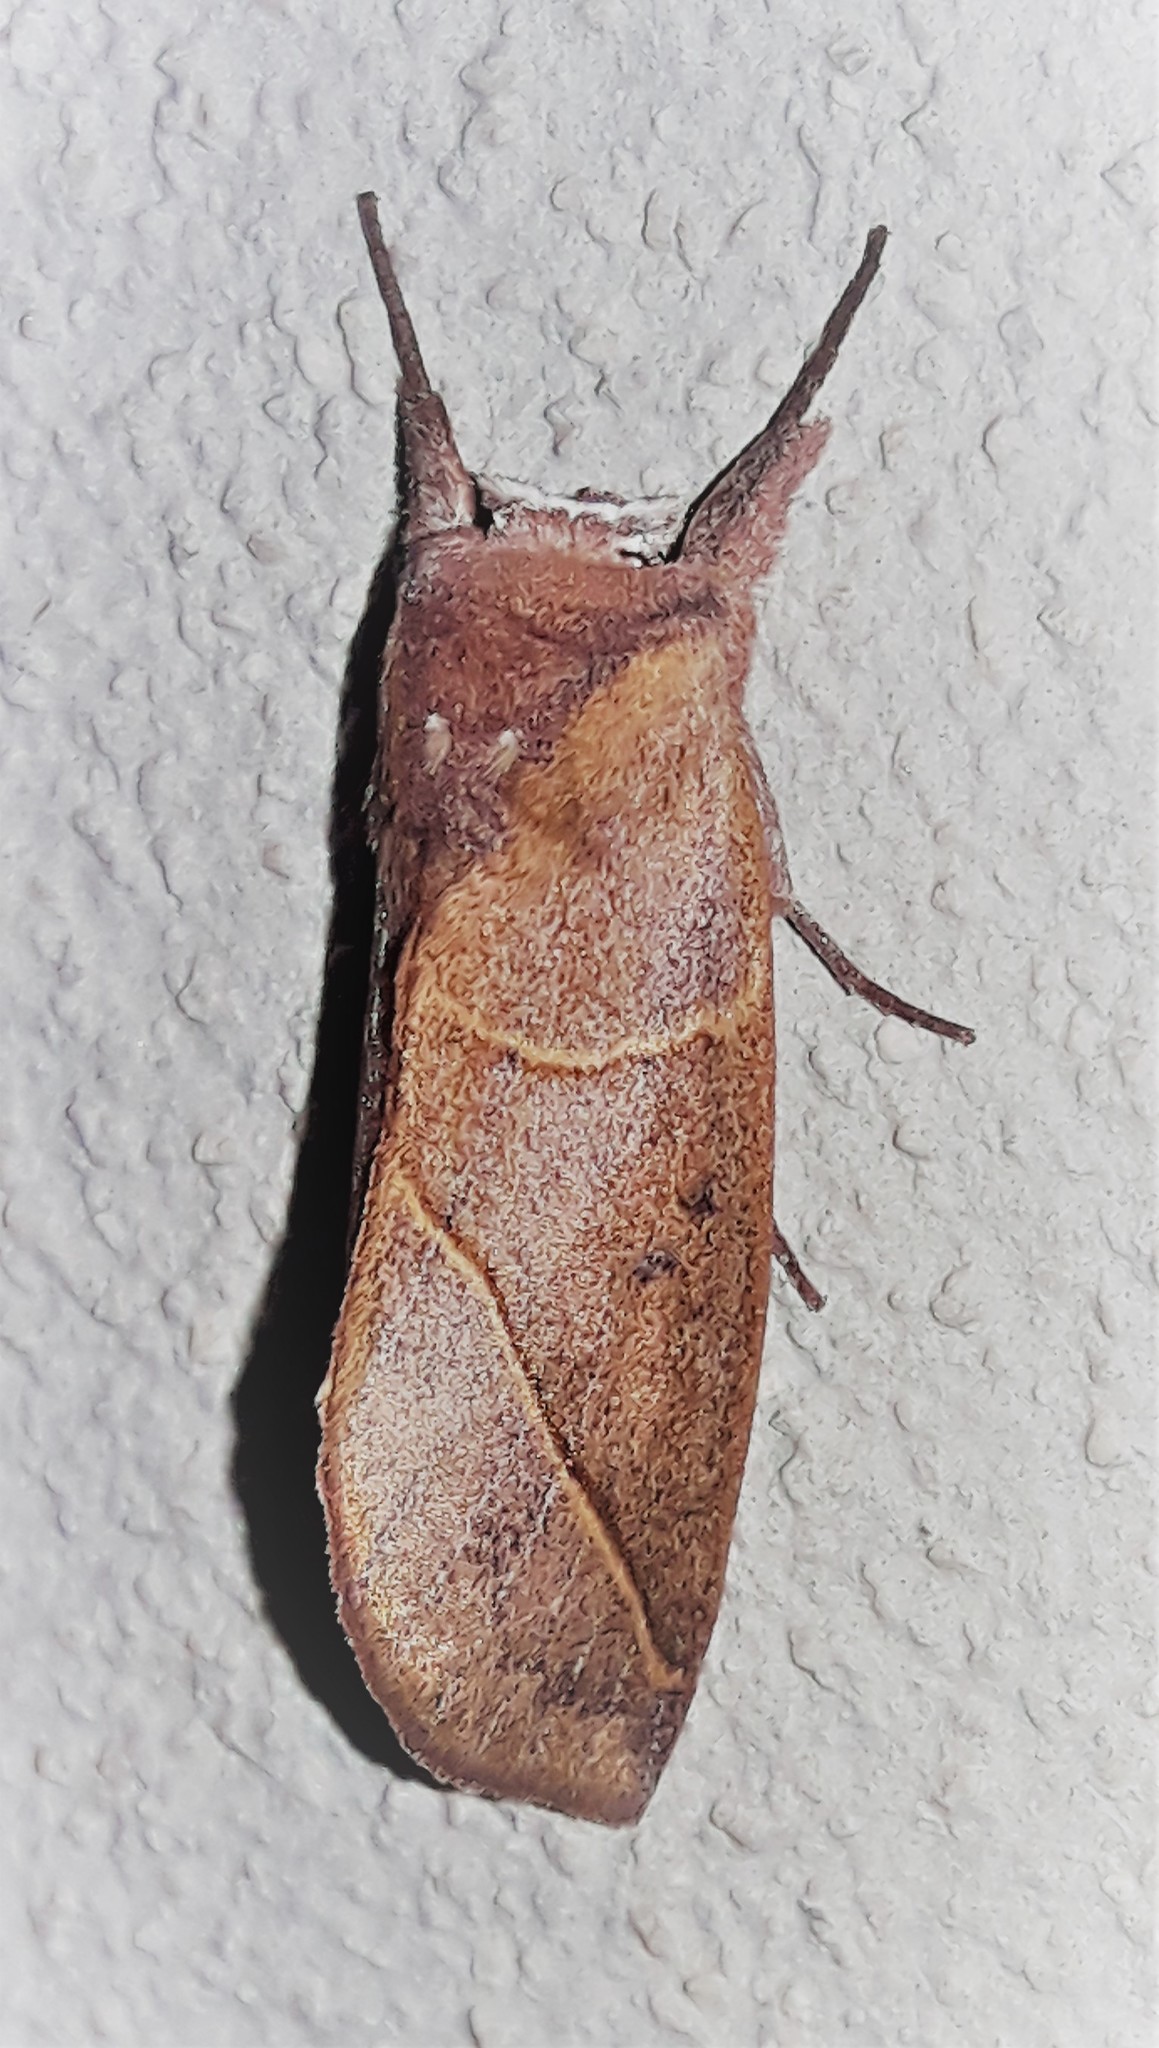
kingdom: Animalia
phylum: Arthropoda
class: Insecta
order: Lepidoptera
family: Notodontidae
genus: Hemiceras
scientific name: Hemiceras clarki
